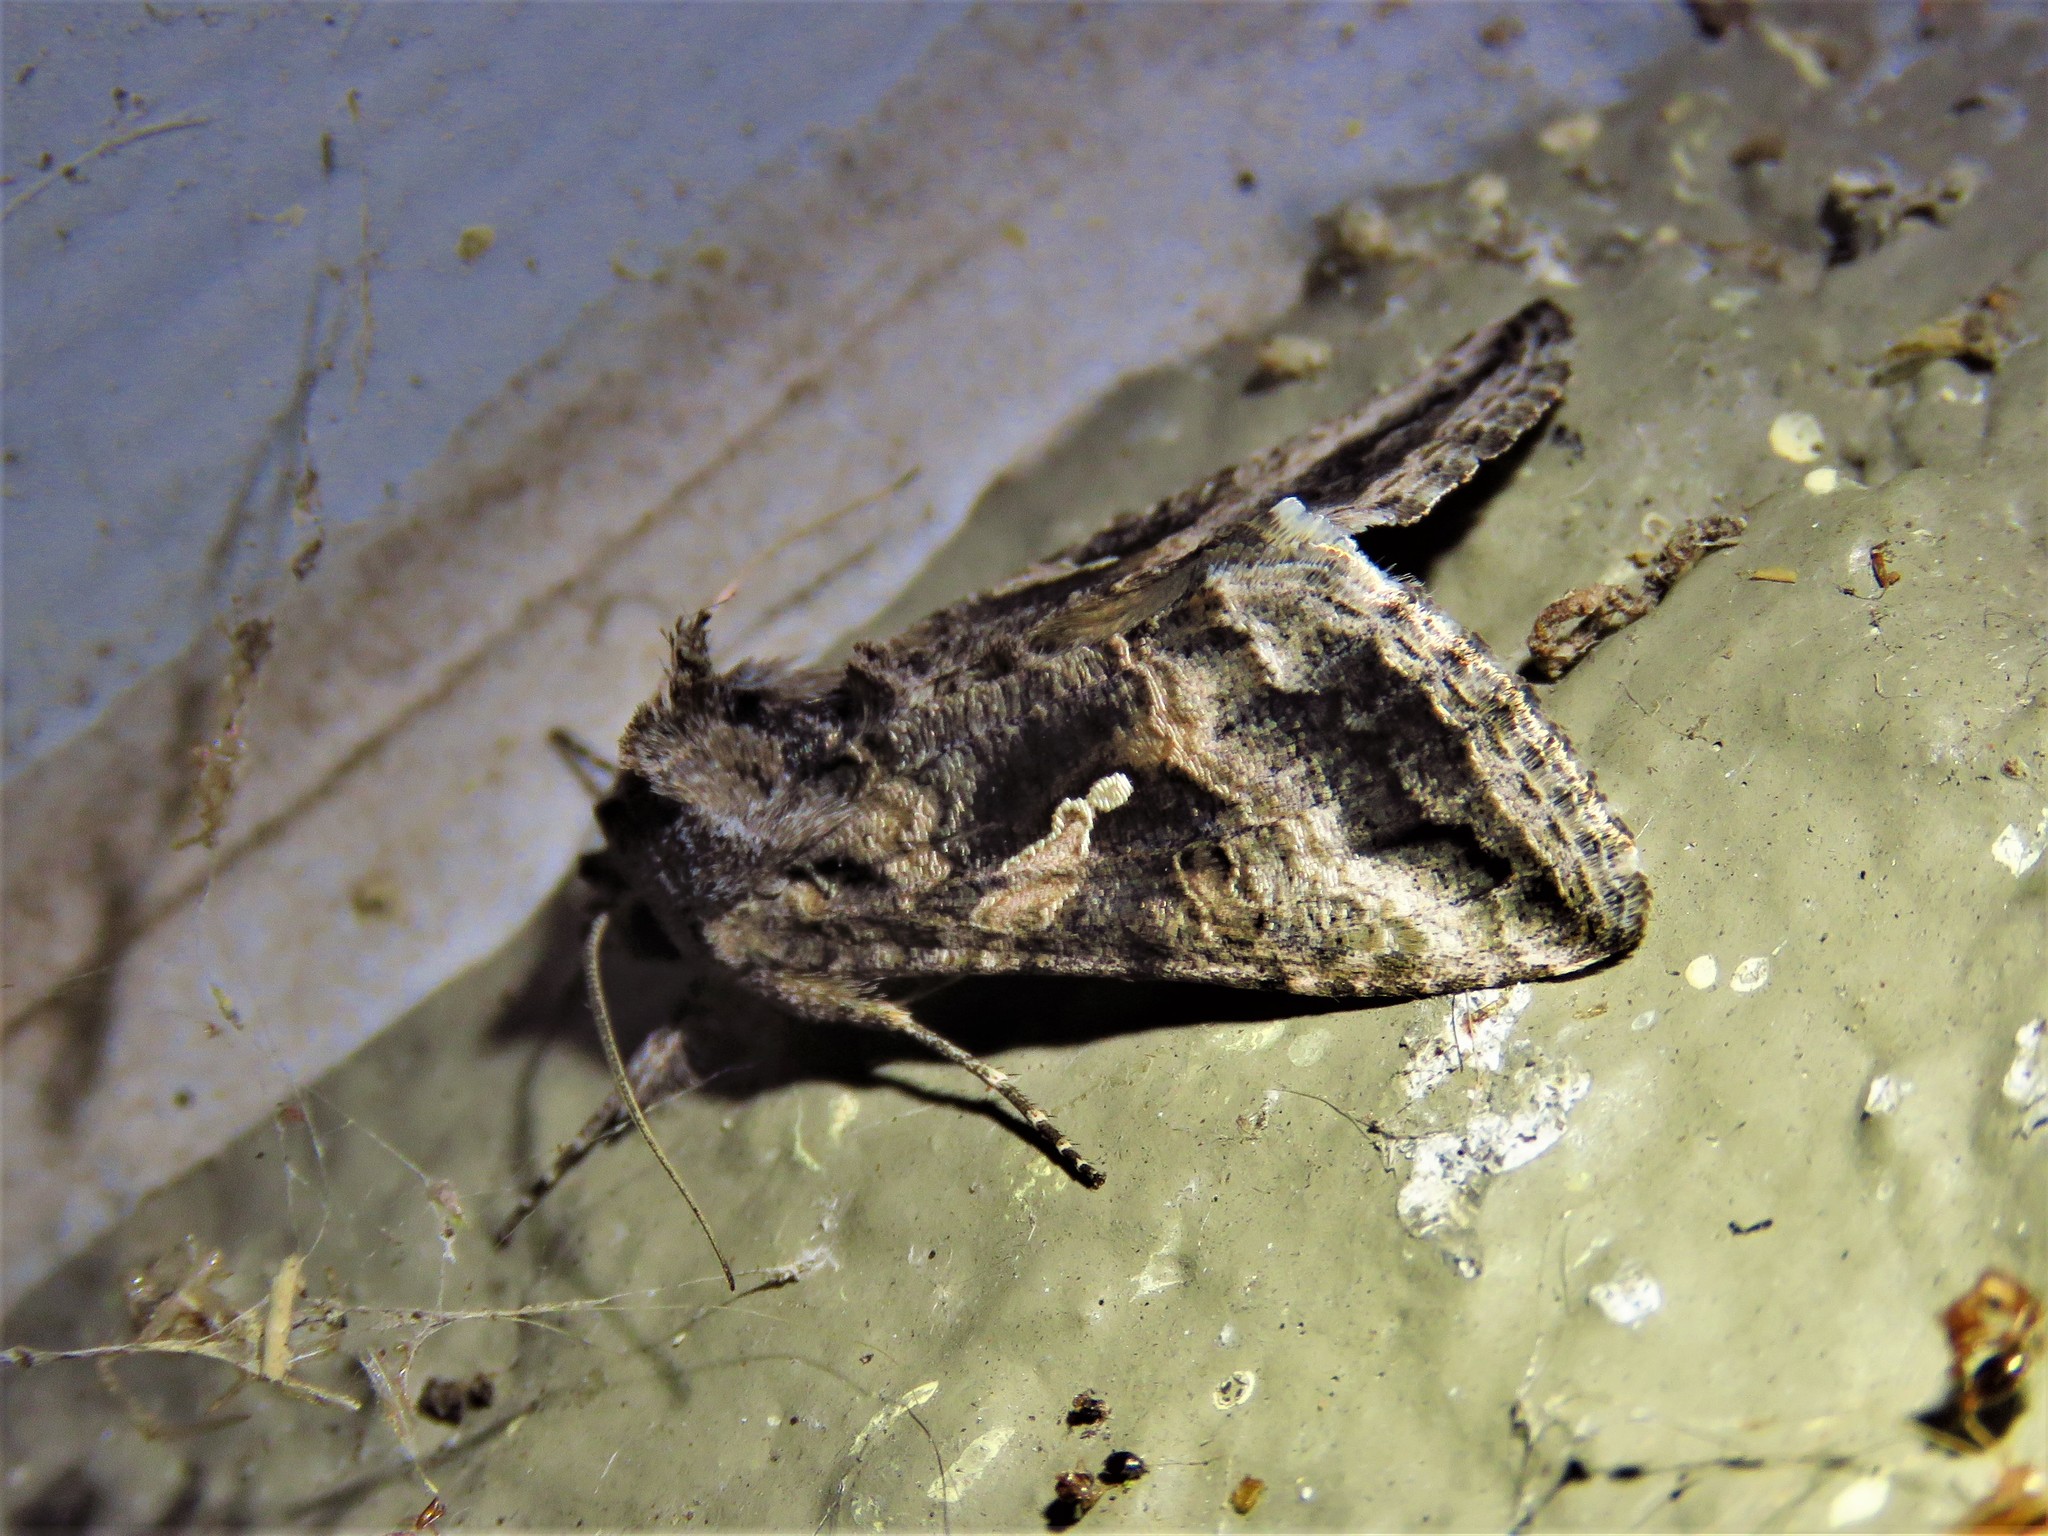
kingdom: Animalia
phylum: Arthropoda
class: Insecta
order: Lepidoptera
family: Noctuidae
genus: Rachiplusia
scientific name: Rachiplusia ou
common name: Gray looper moth
